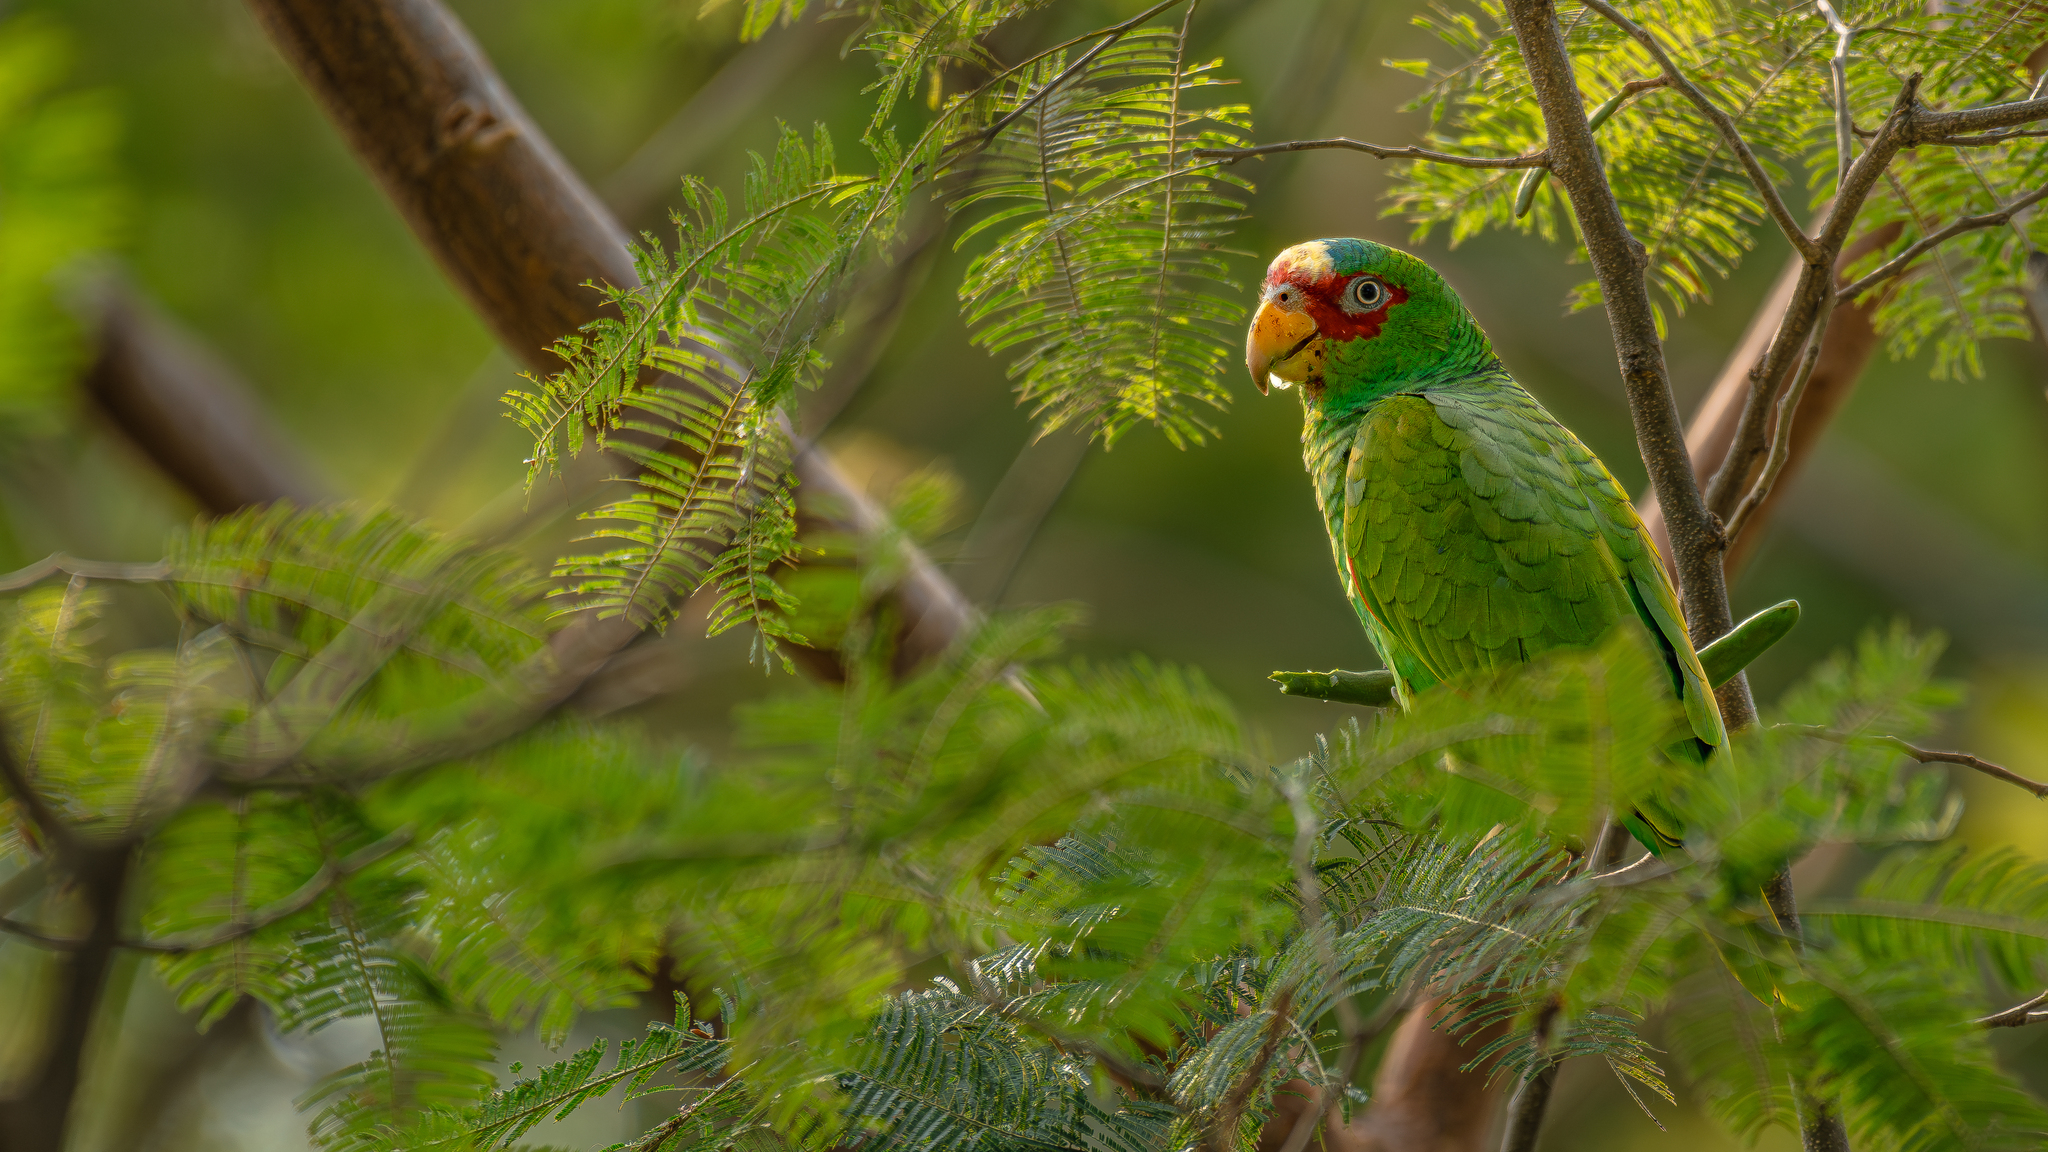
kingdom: Animalia
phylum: Chordata
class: Aves
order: Psittaciformes
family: Psittacidae
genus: Amazona
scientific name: Amazona albifrons
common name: White-fronted amazon
